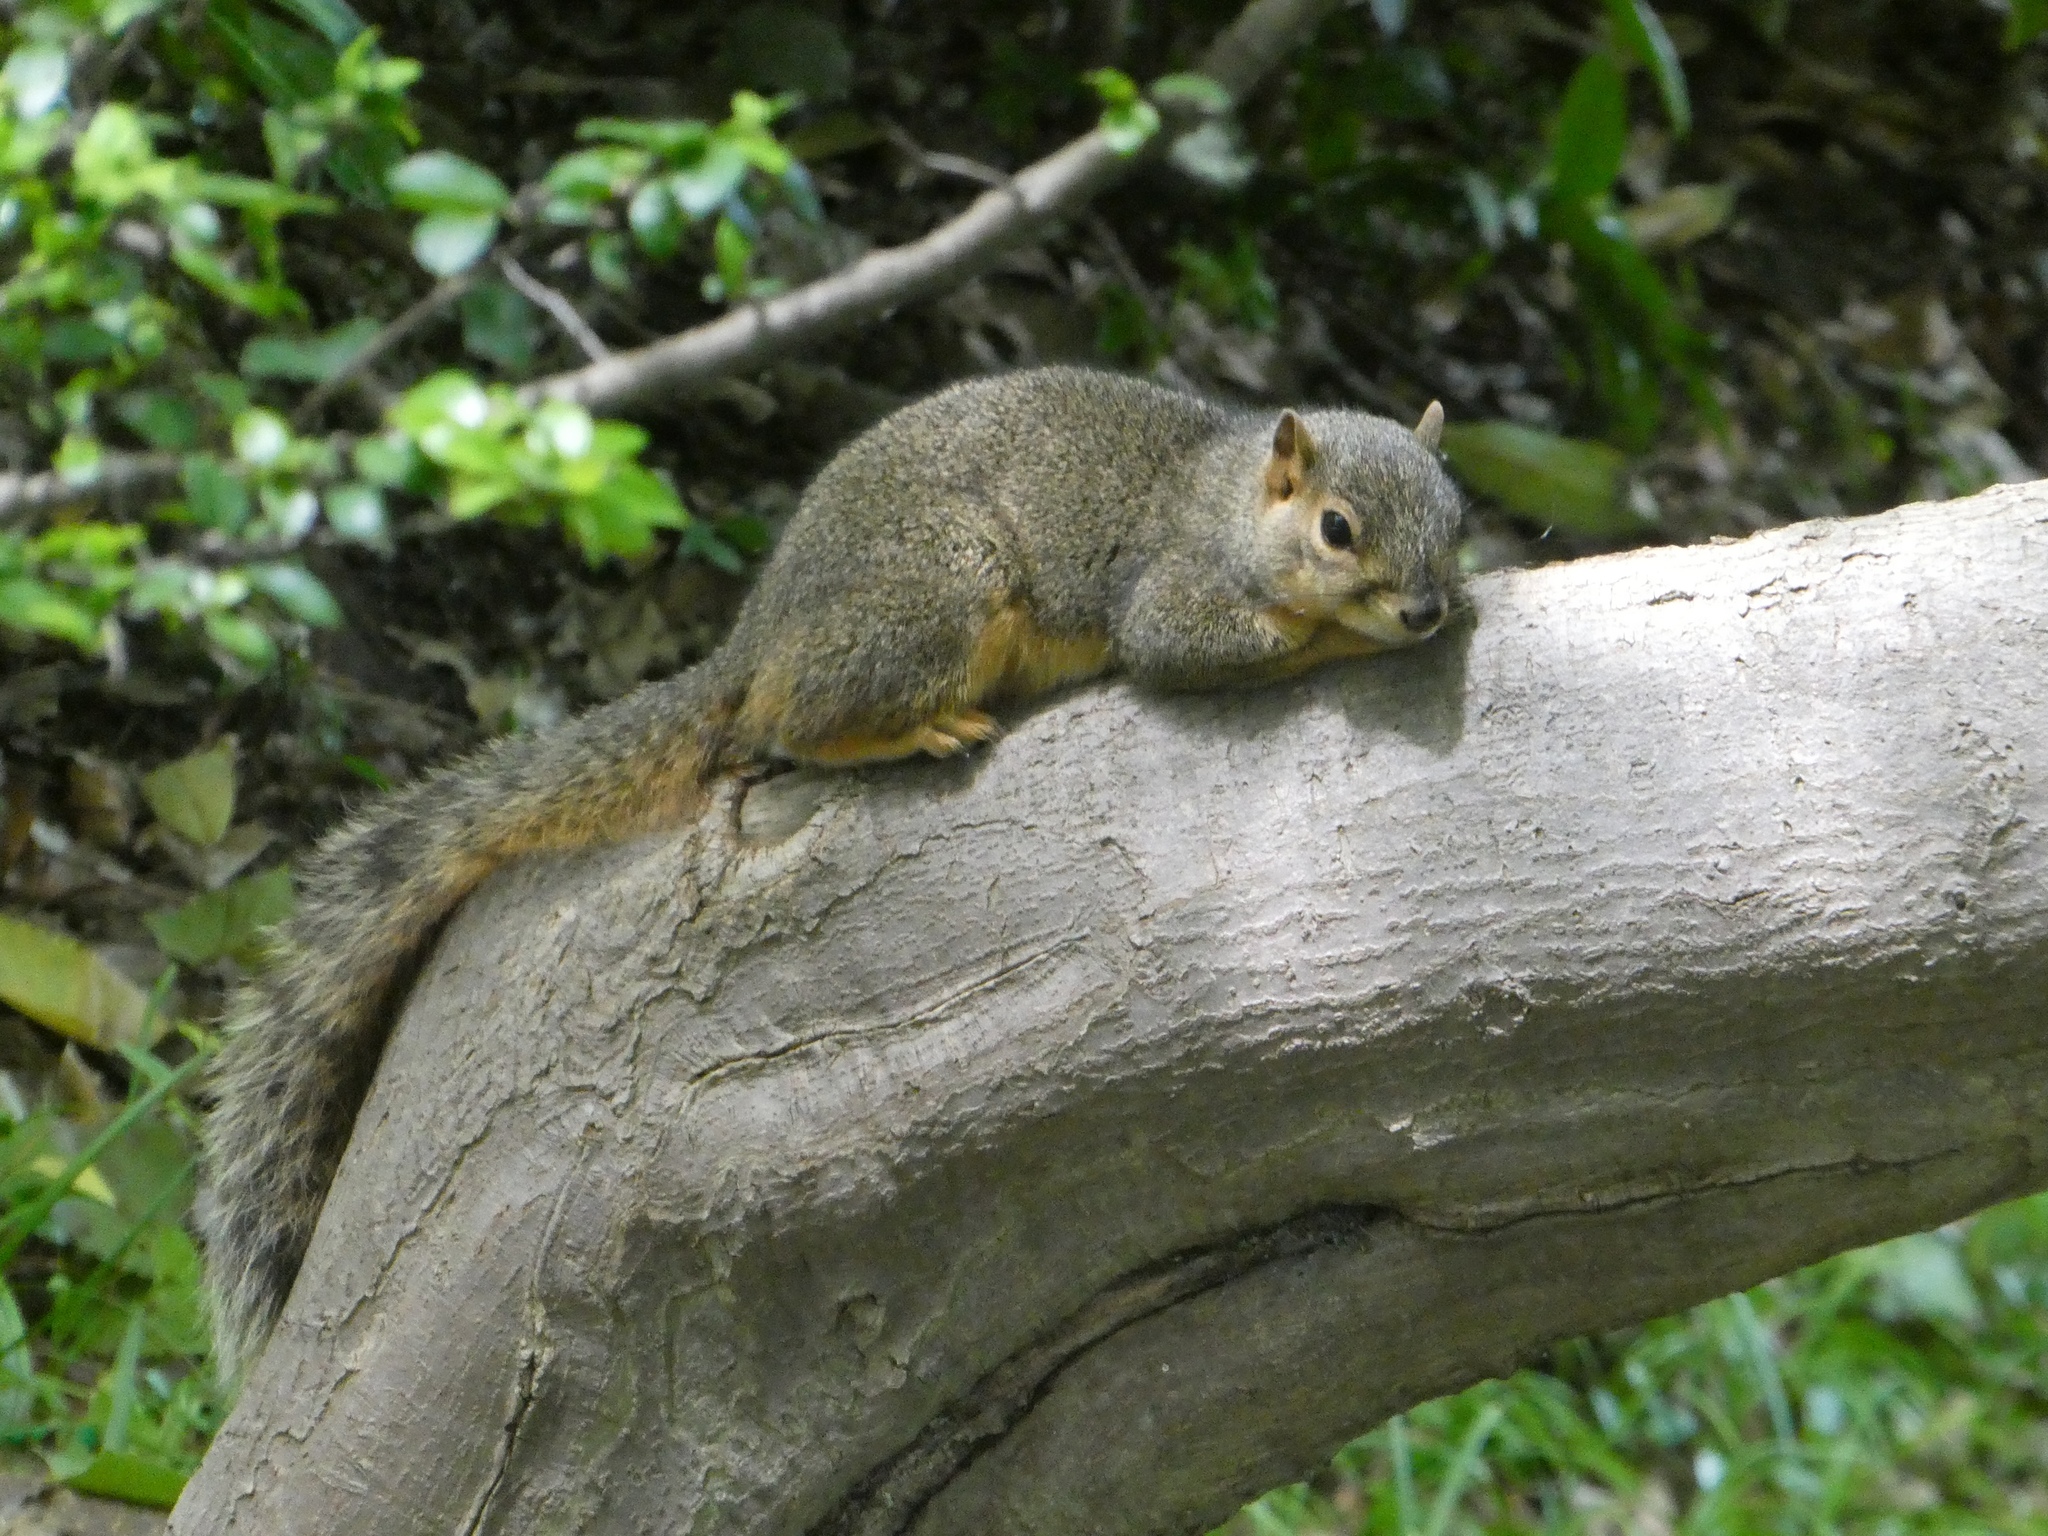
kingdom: Animalia
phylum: Chordata
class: Mammalia
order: Rodentia
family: Sciuridae
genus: Sciurus
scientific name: Sciurus niger
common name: Fox squirrel
